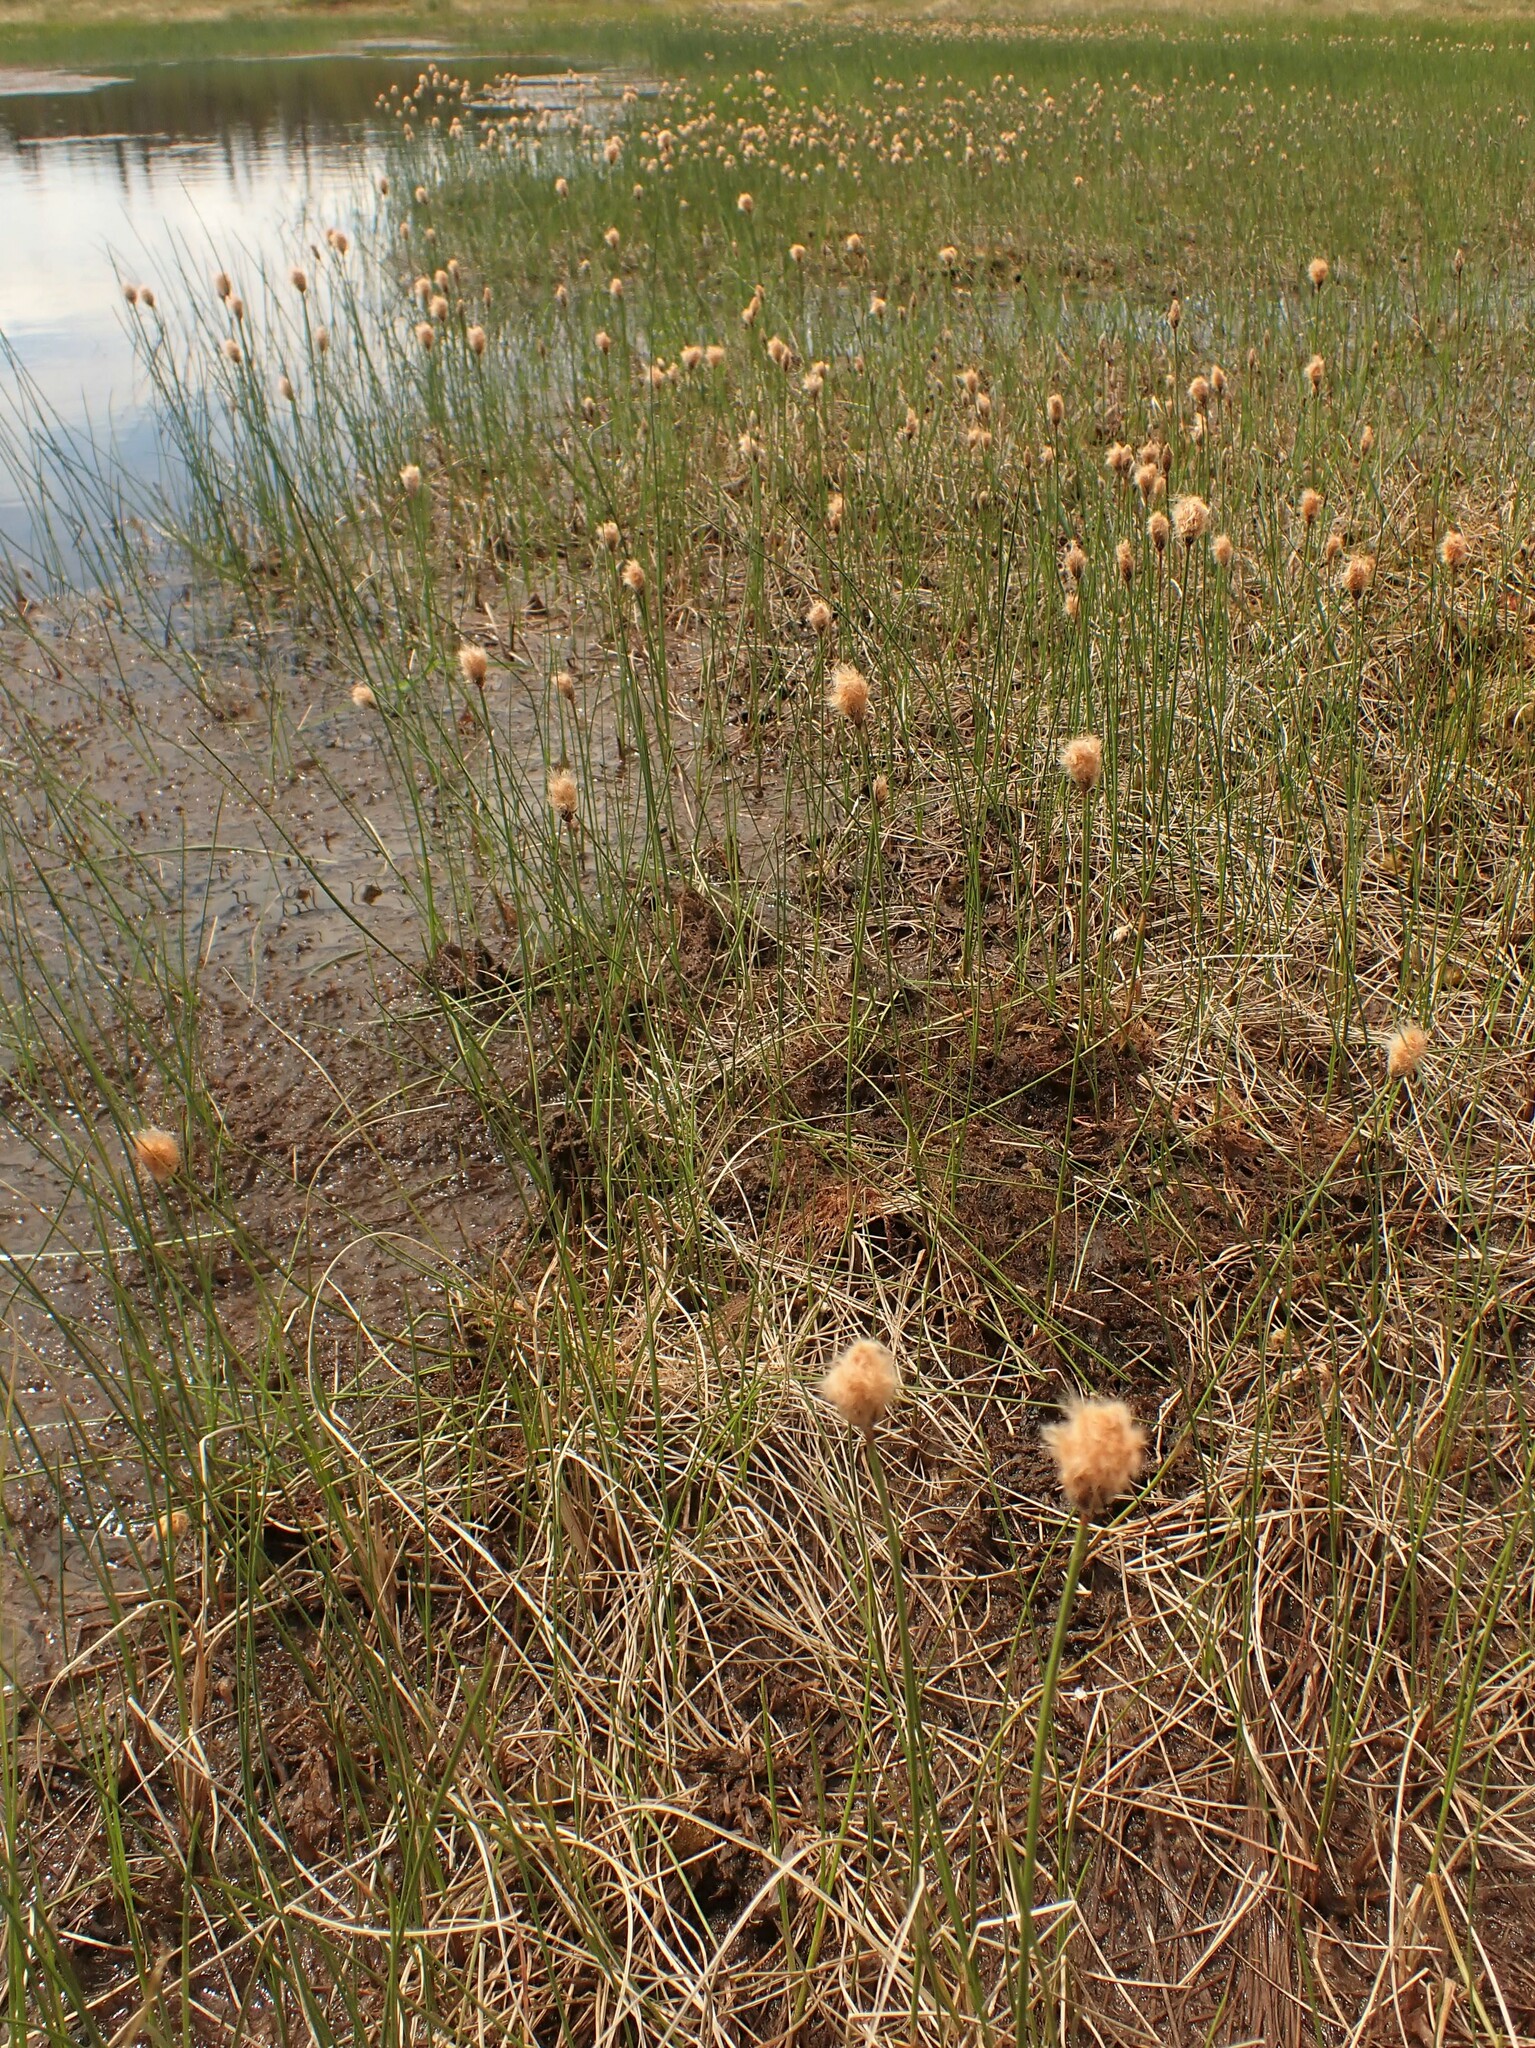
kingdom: Plantae
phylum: Tracheophyta
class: Liliopsida
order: Poales
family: Cyperaceae
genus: Eriophorum
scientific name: Eriophorum chamissonis
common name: Chamisso's cottongrass
